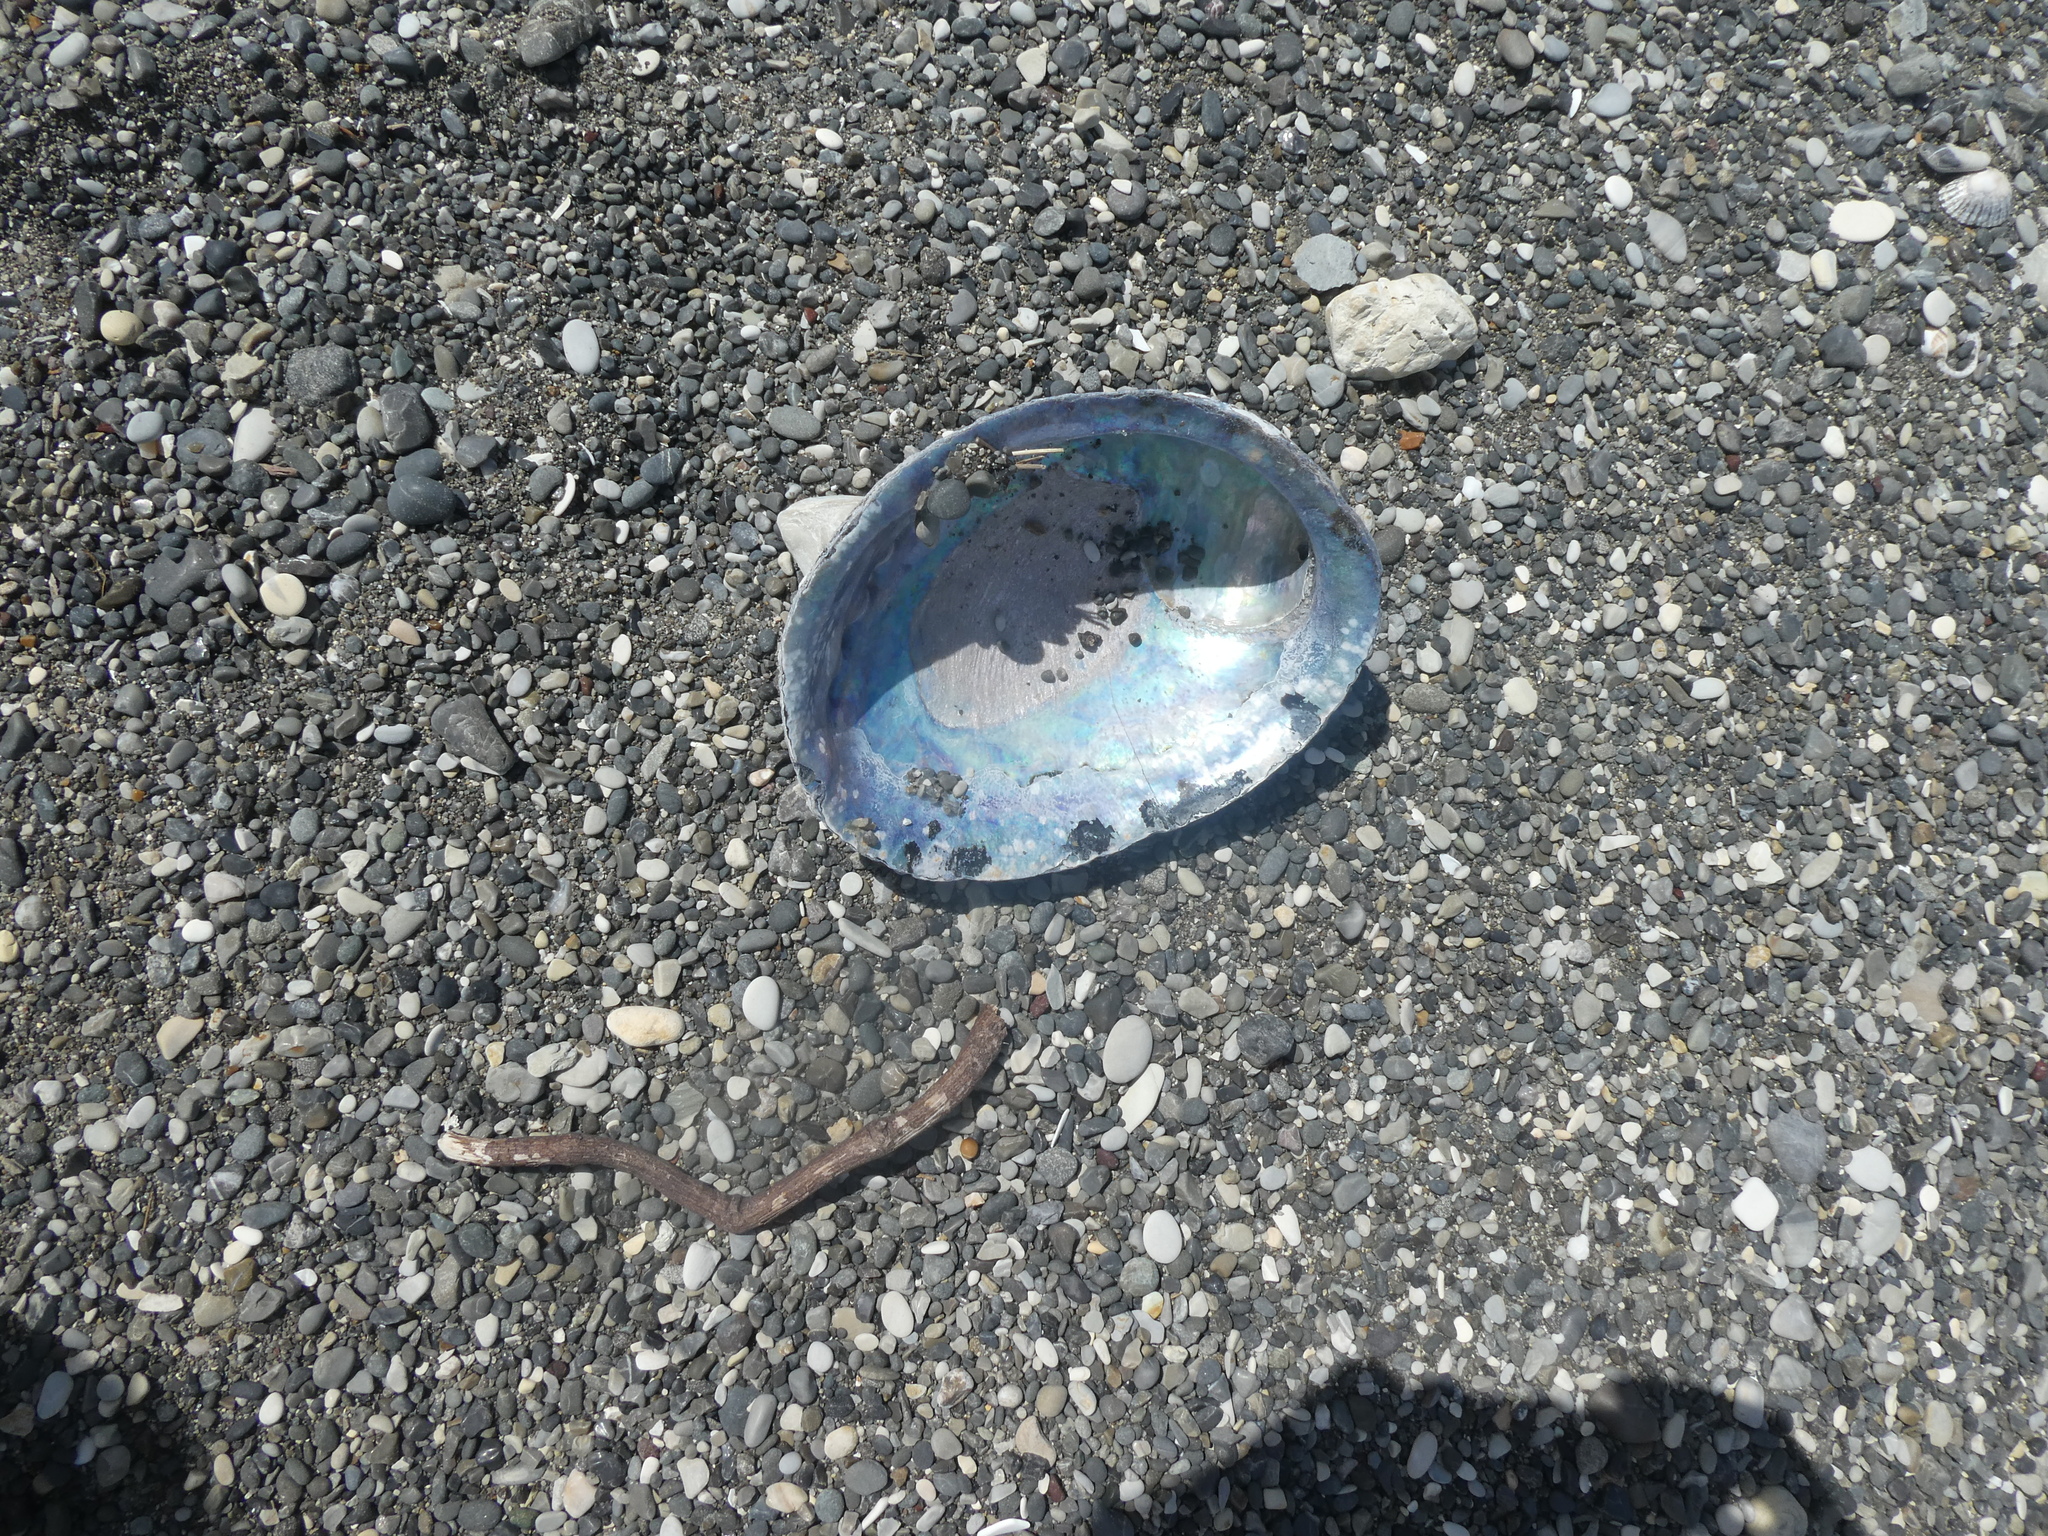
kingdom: Animalia
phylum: Mollusca
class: Gastropoda
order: Lepetellida
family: Haliotidae
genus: Haliotis
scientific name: Haliotis iris
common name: Abalone
